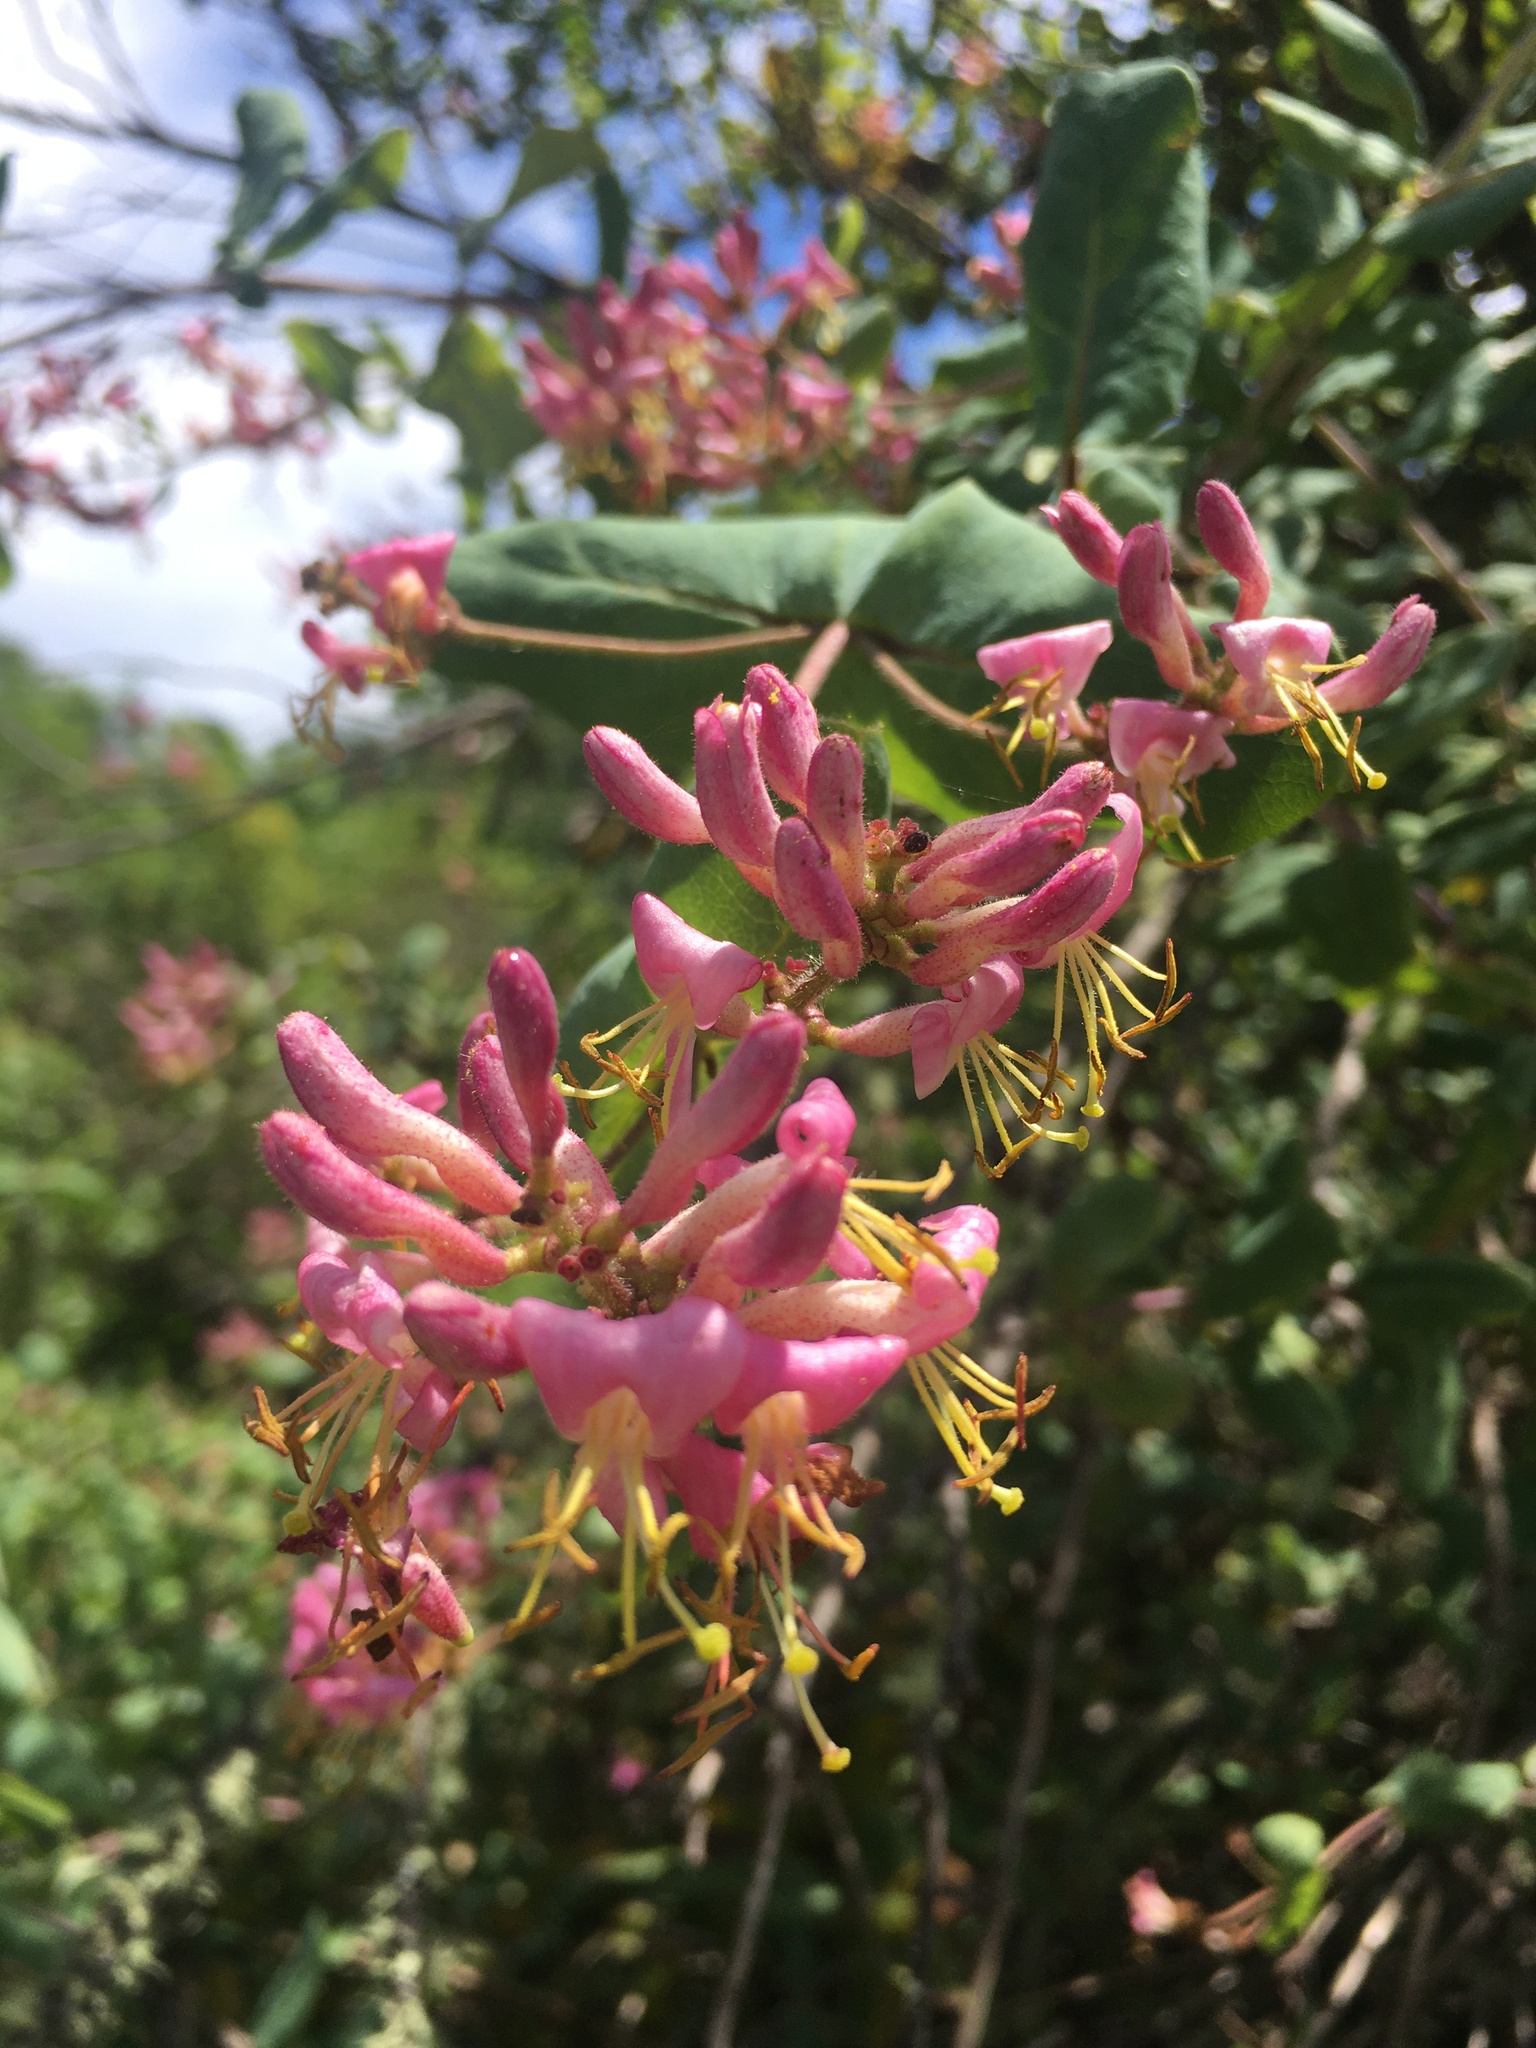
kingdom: Plantae
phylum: Tracheophyta
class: Magnoliopsida
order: Dipsacales
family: Caprifoliaceae
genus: Lonicera
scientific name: Lonicera hispidula
